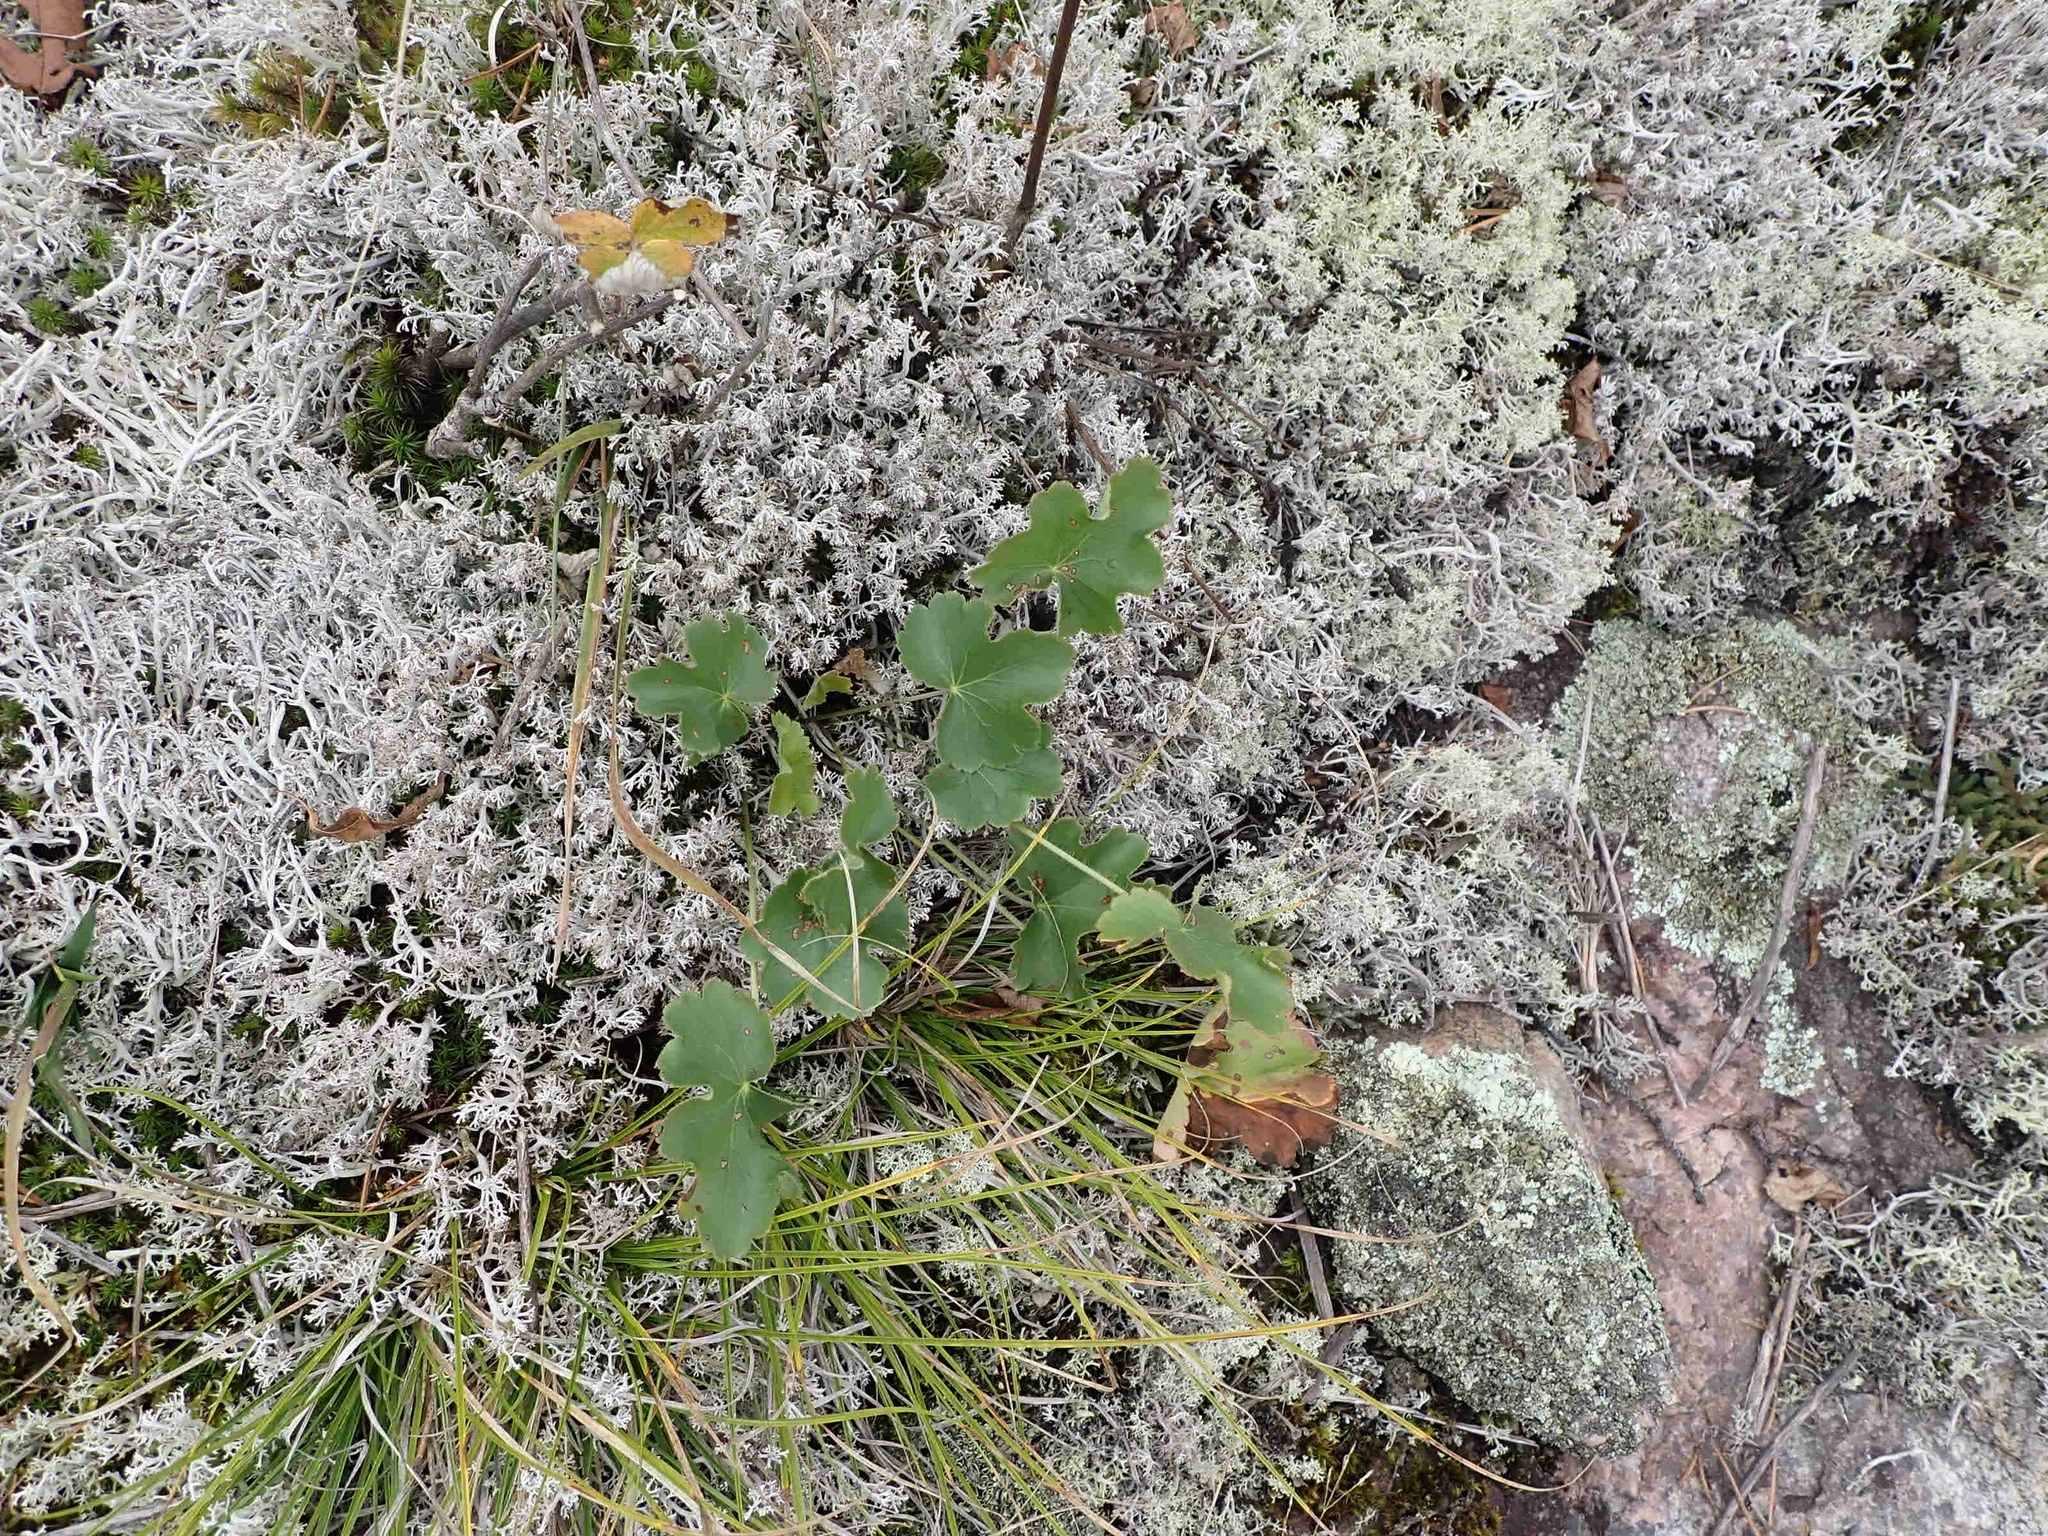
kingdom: Plantae
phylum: Tracheophyta
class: Magnoliopsida
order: Saxifragales
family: Saxifragaceae
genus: Heuchera
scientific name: Heuchera richardsonii
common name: Richardson's alumroot
